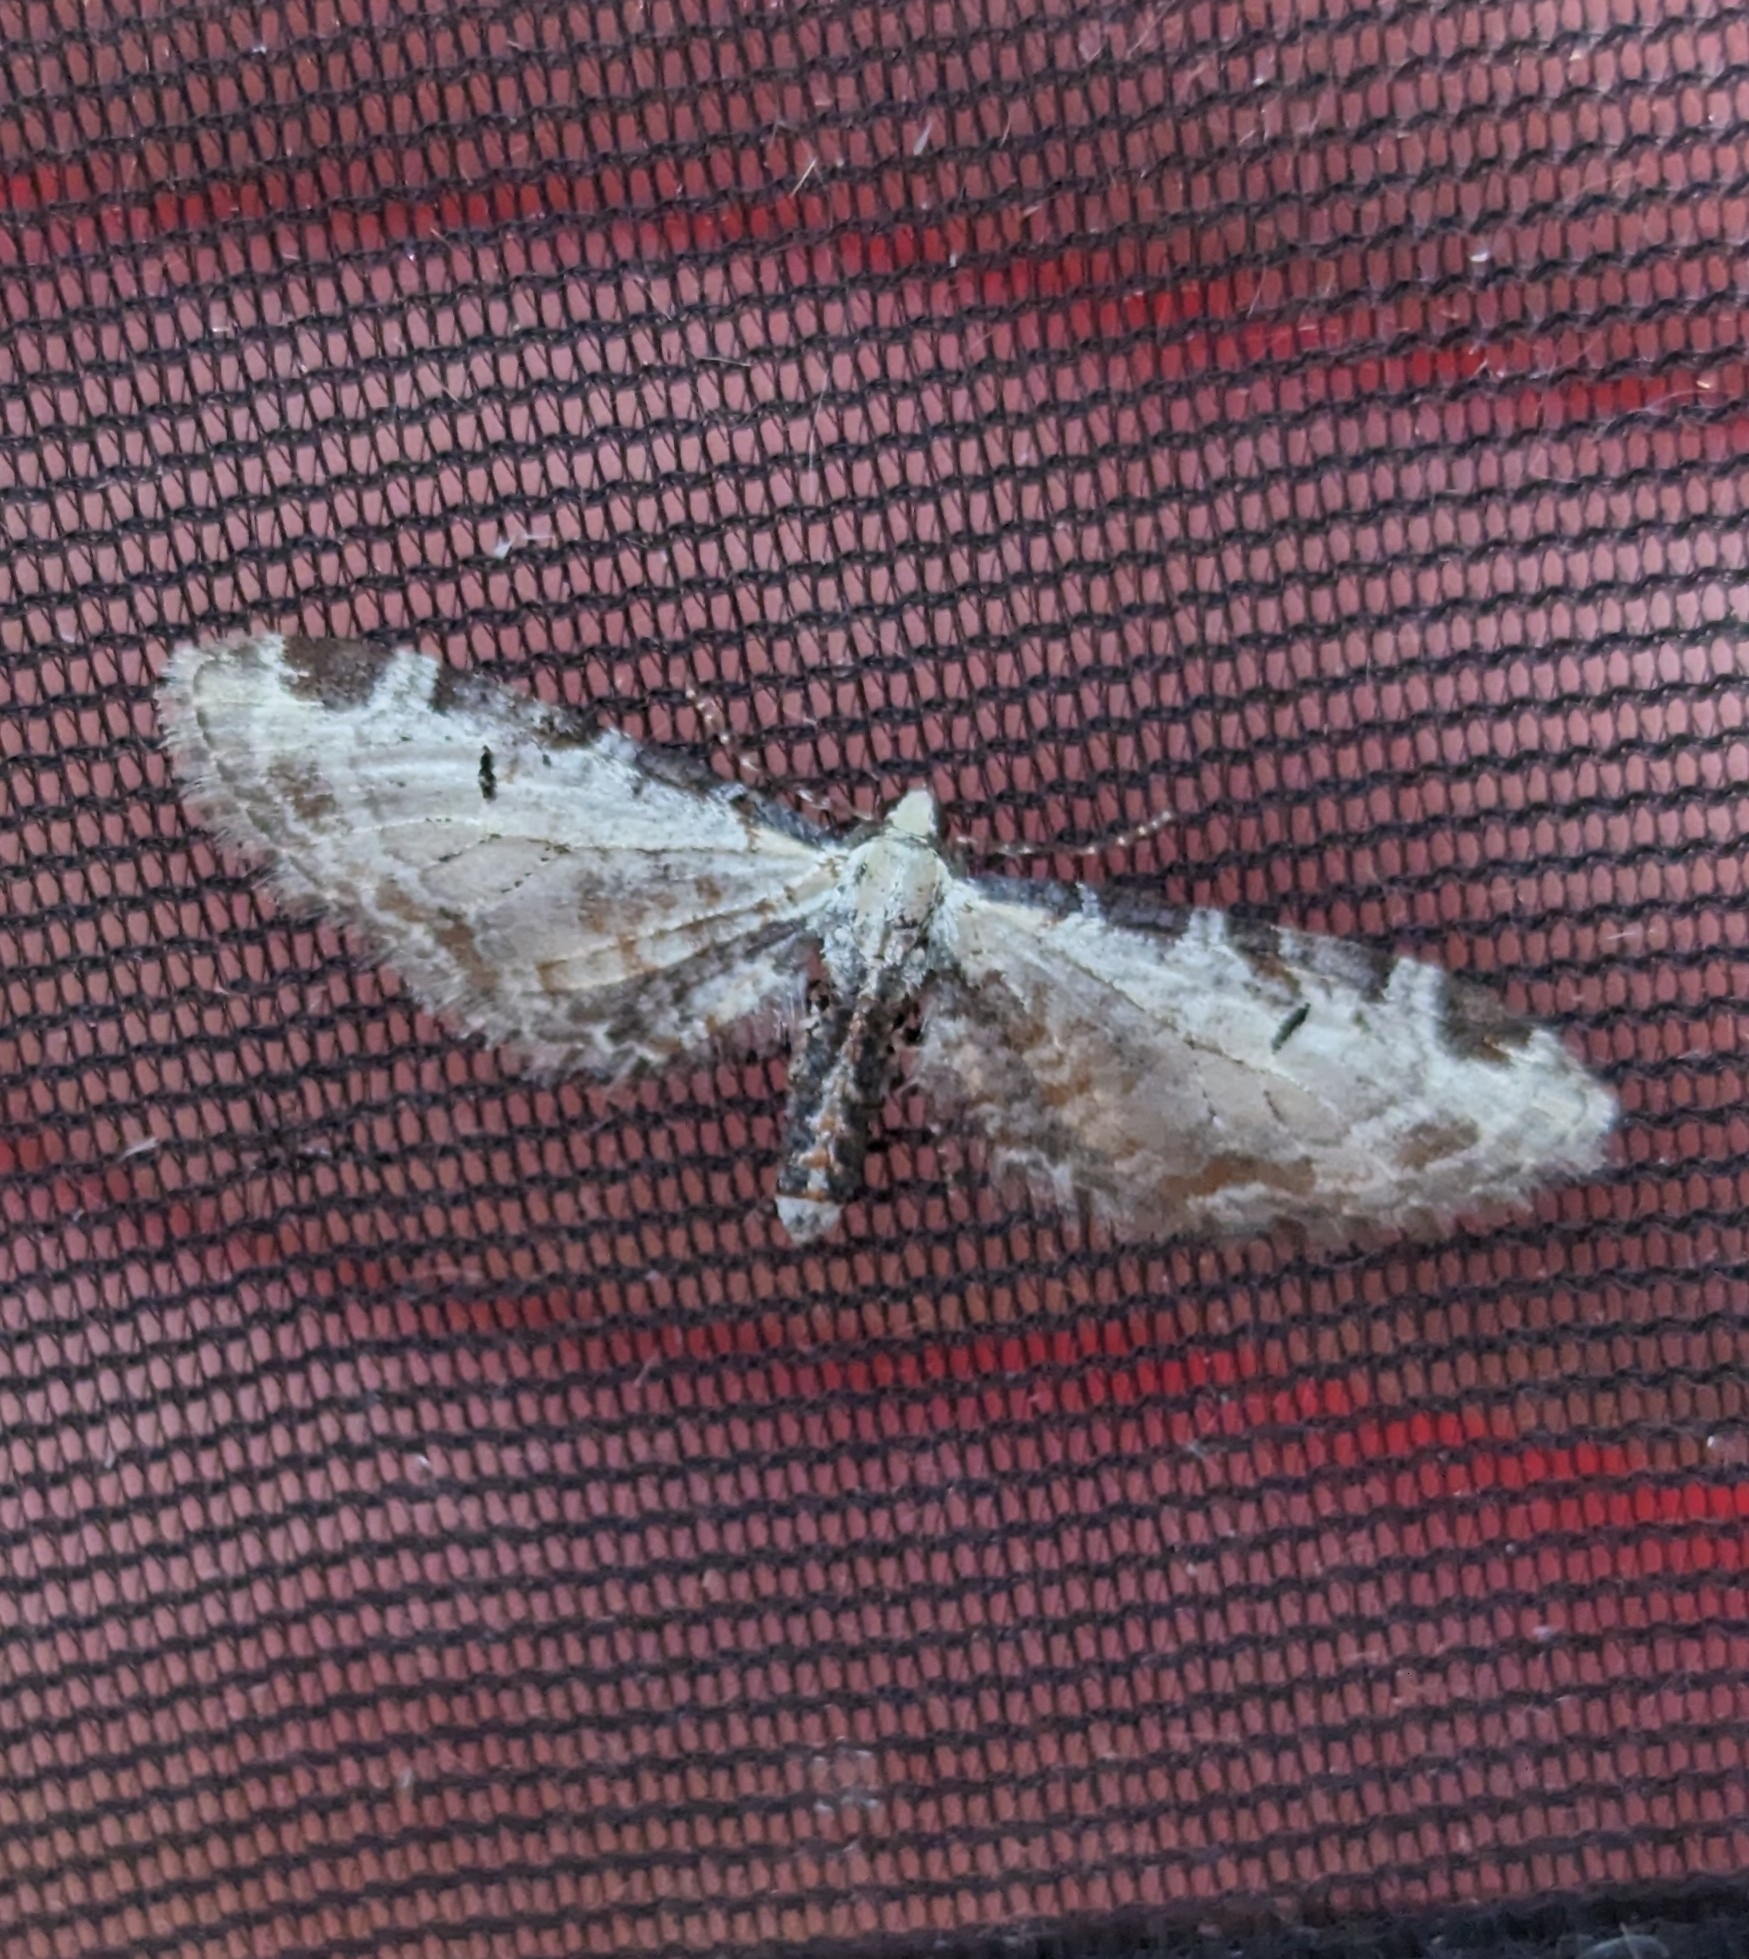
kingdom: Animalia
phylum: Arthropoda
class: Insecta
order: Lepidoptera
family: Geometridae
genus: Eupithecia
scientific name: Eupithecia ravocostaliata
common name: Great varigated pug
